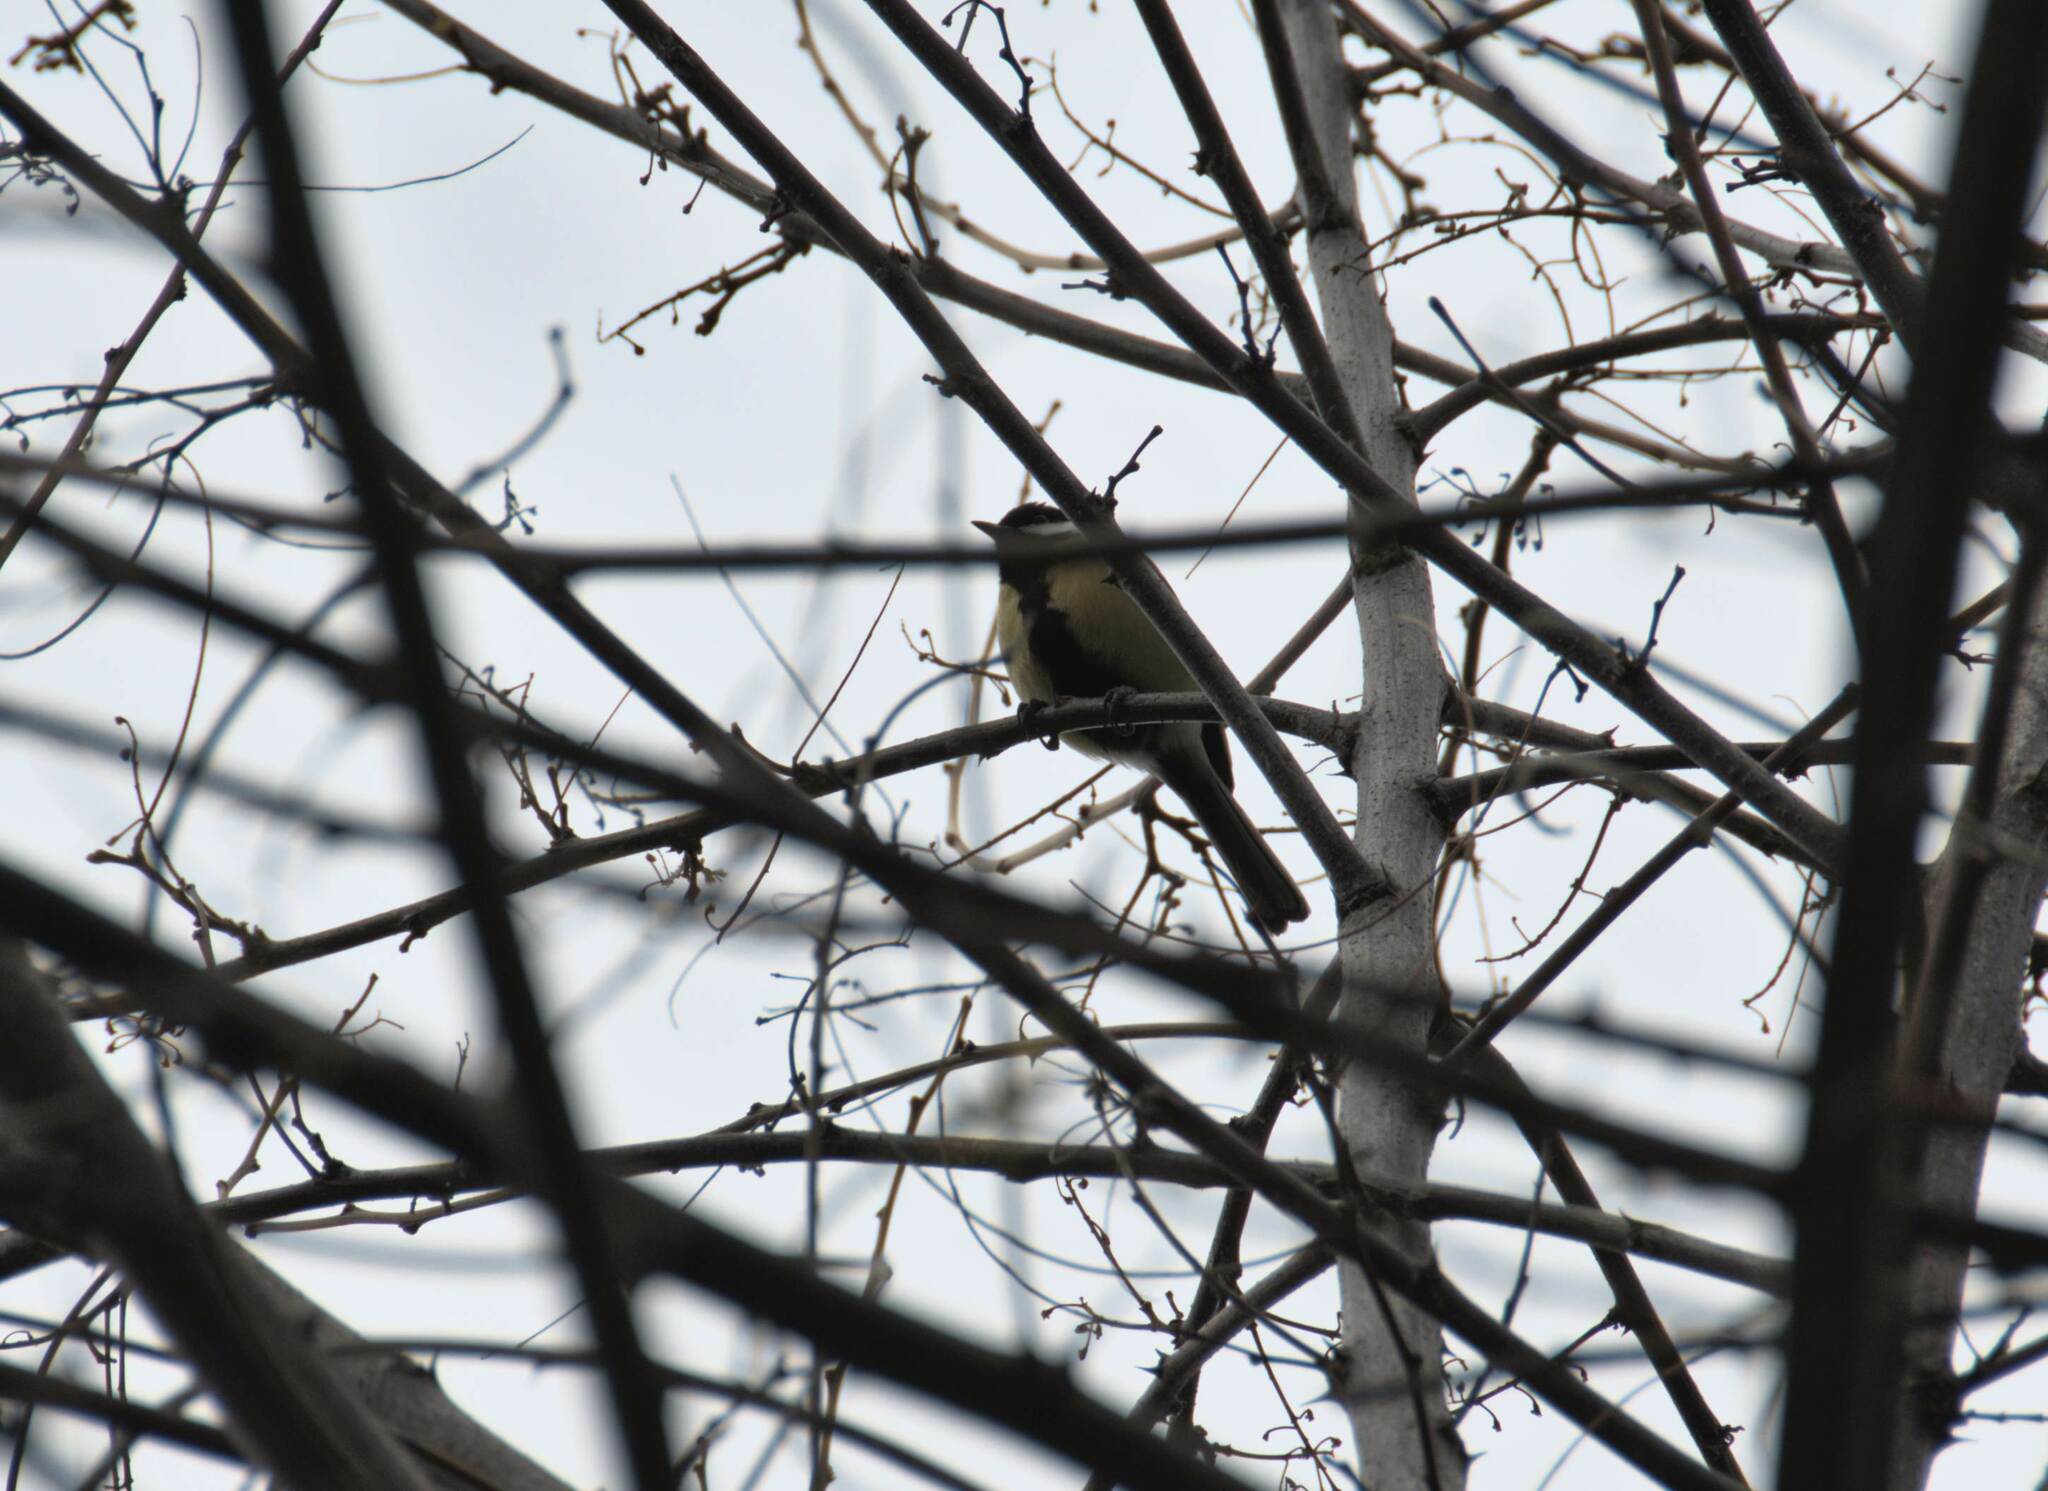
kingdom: Animalia
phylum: Chordata
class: Aves
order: Passeriformes
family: Paridae
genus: Parus
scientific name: Parus major
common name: Great tit
